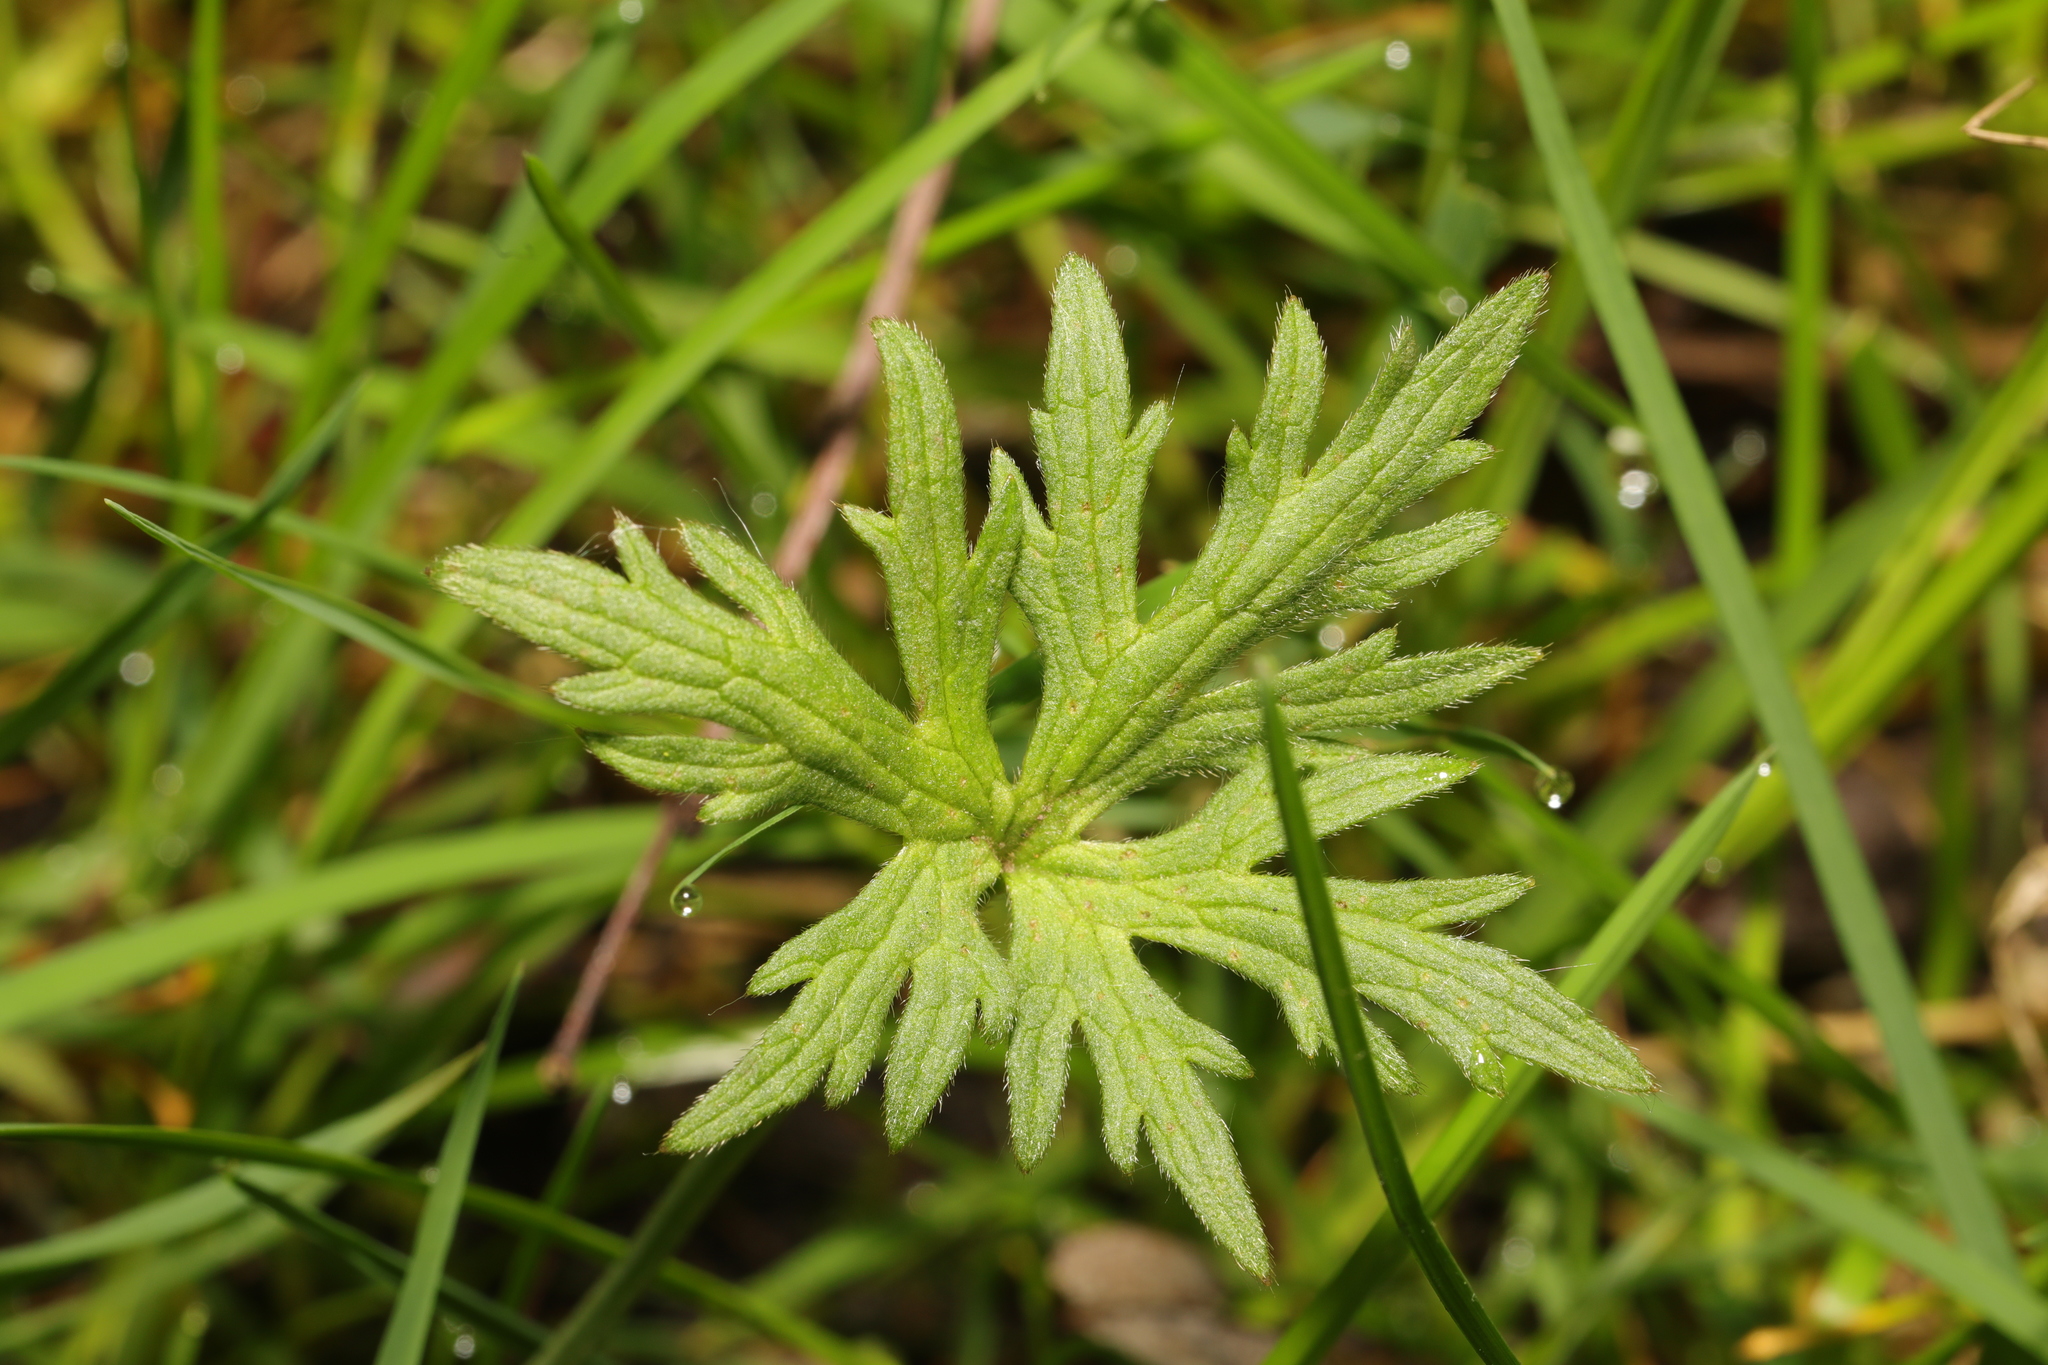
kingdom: Plantae
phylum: Tracheophyta
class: Magnoliopsida
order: Ranunculales
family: Ranunculaceae
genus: Ranunculus
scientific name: Ranunculus acris
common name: Meadow buttercup
